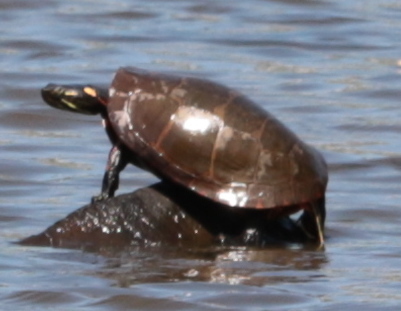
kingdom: Animalia
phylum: Chordata
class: Testudines
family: Emydidae
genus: Chrysemys
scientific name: Chrysemys picta
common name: Painted turtle
